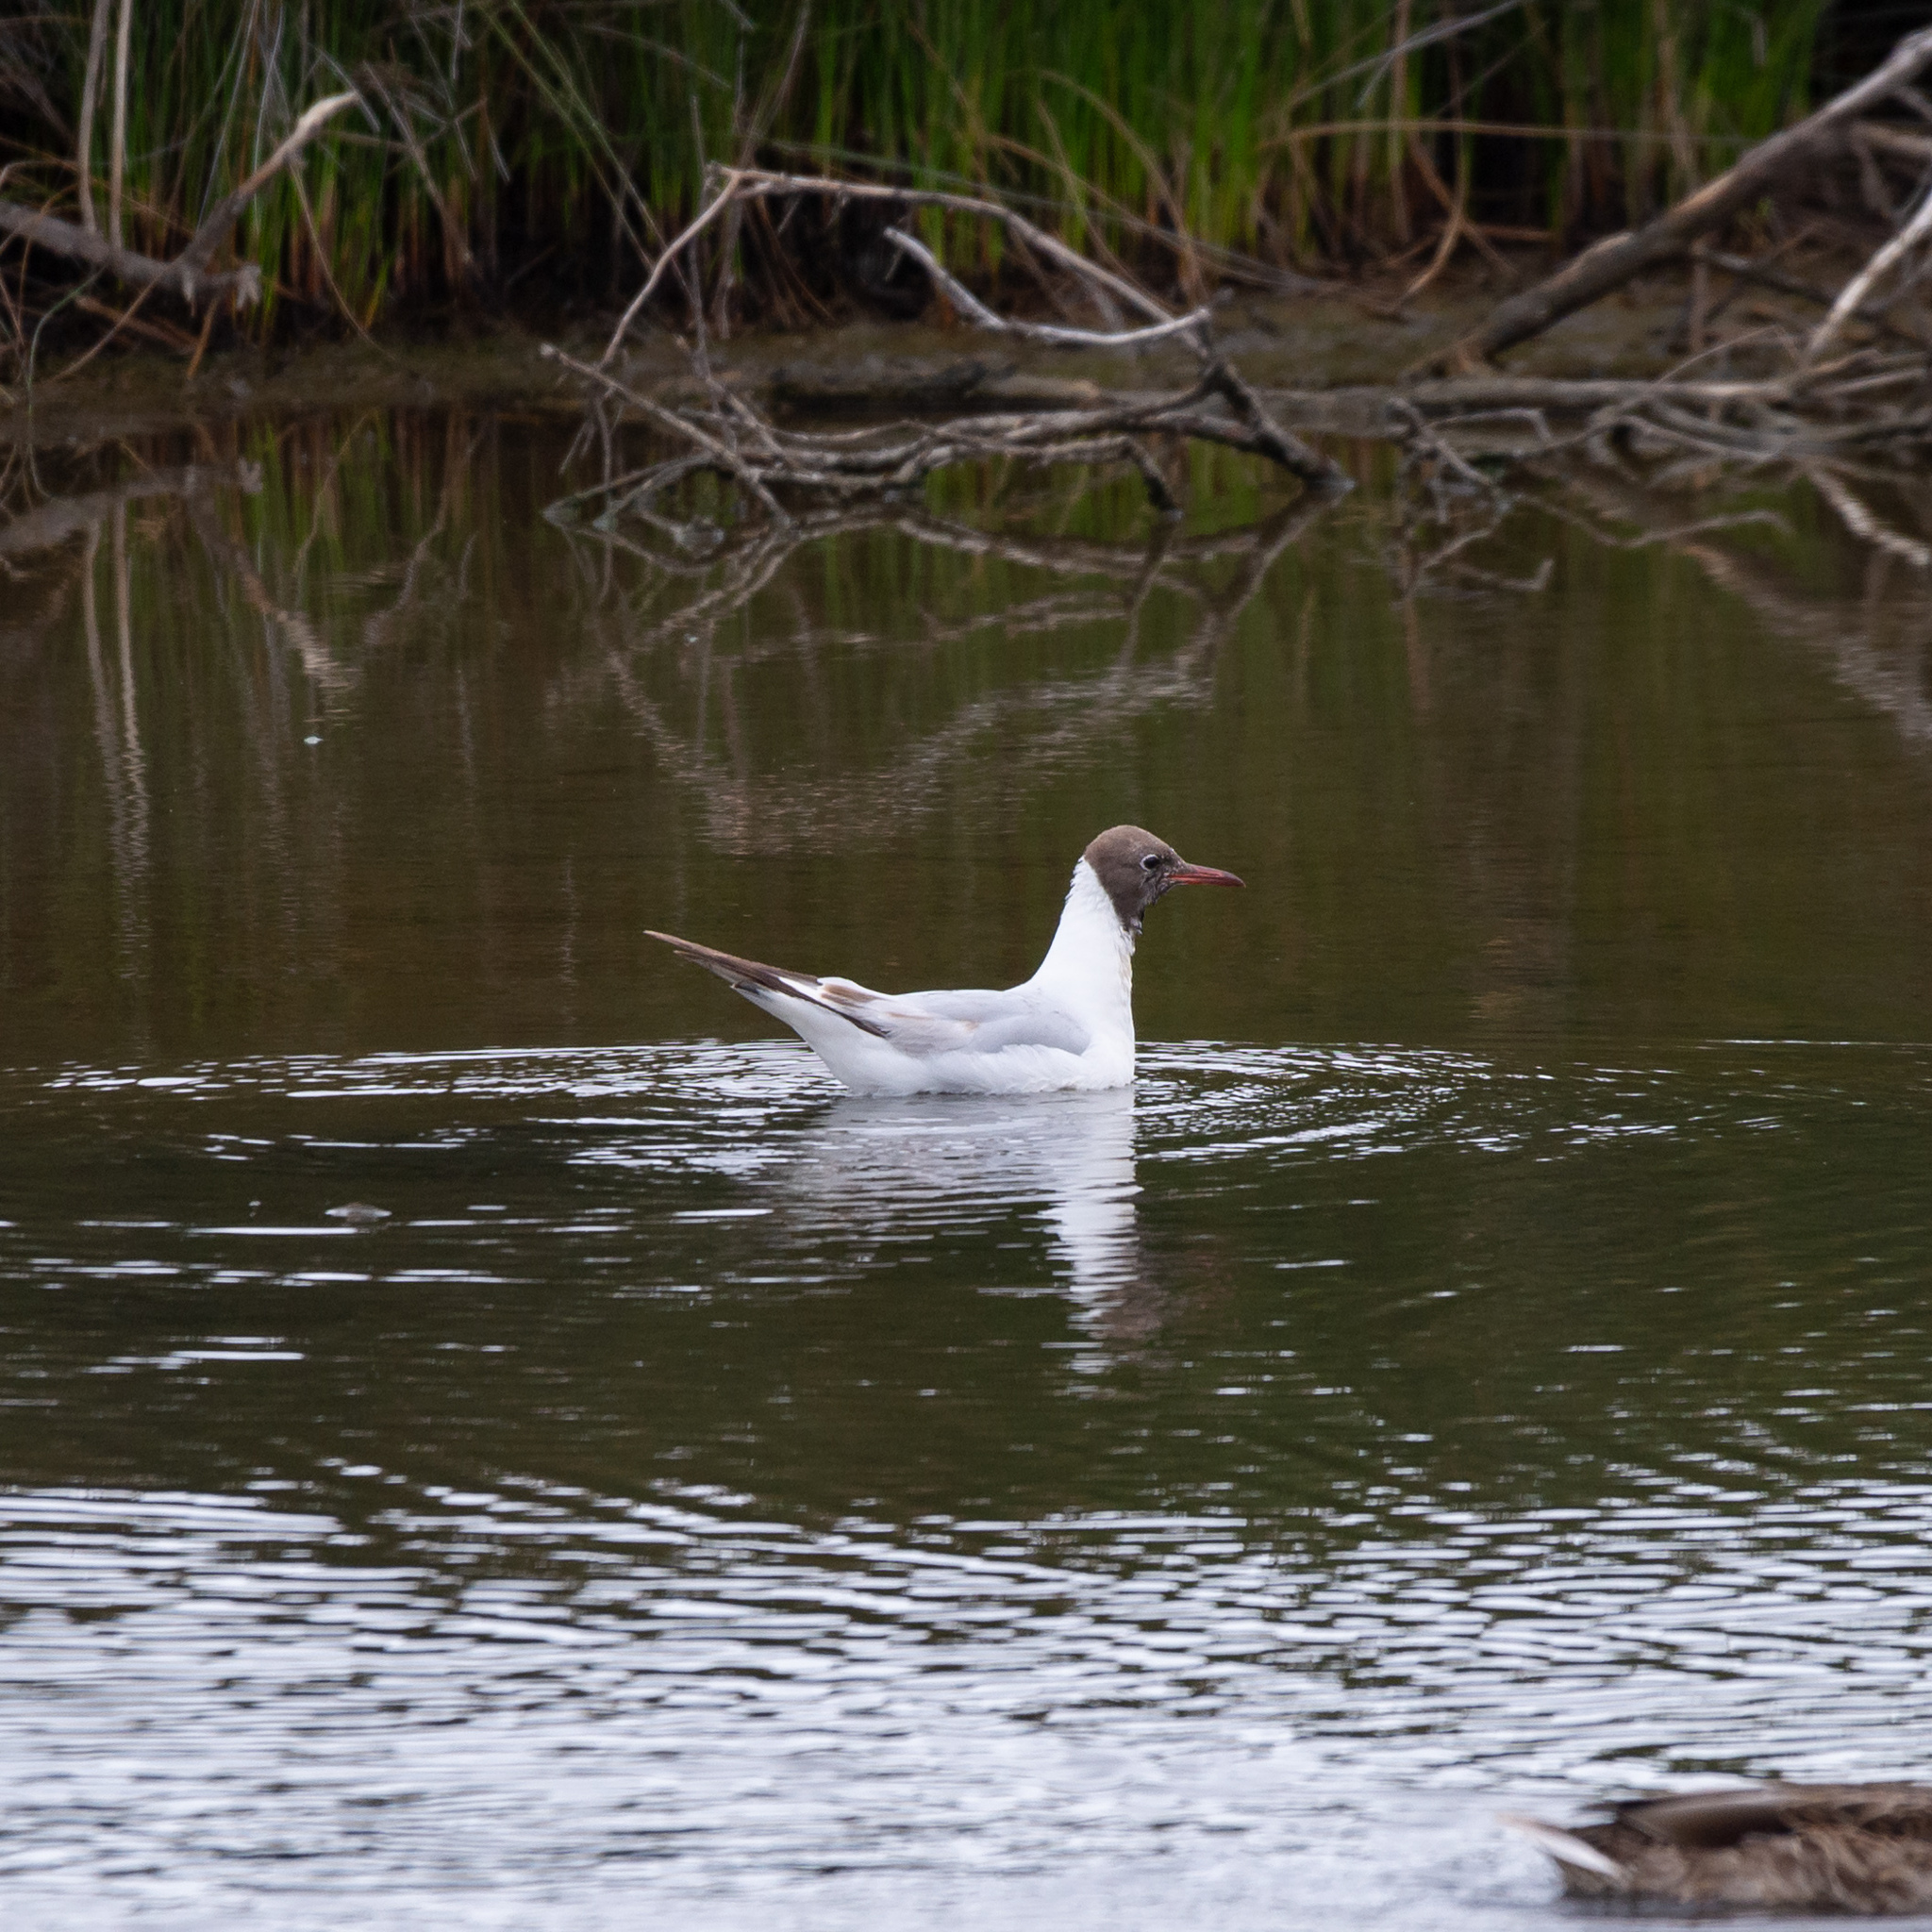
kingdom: Animalia
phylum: Chordata
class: Aves
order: Charadriiformes
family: Laridae
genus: Chroicocephalus
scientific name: Chroicocephalus ridibundus
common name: Black-headed gull
